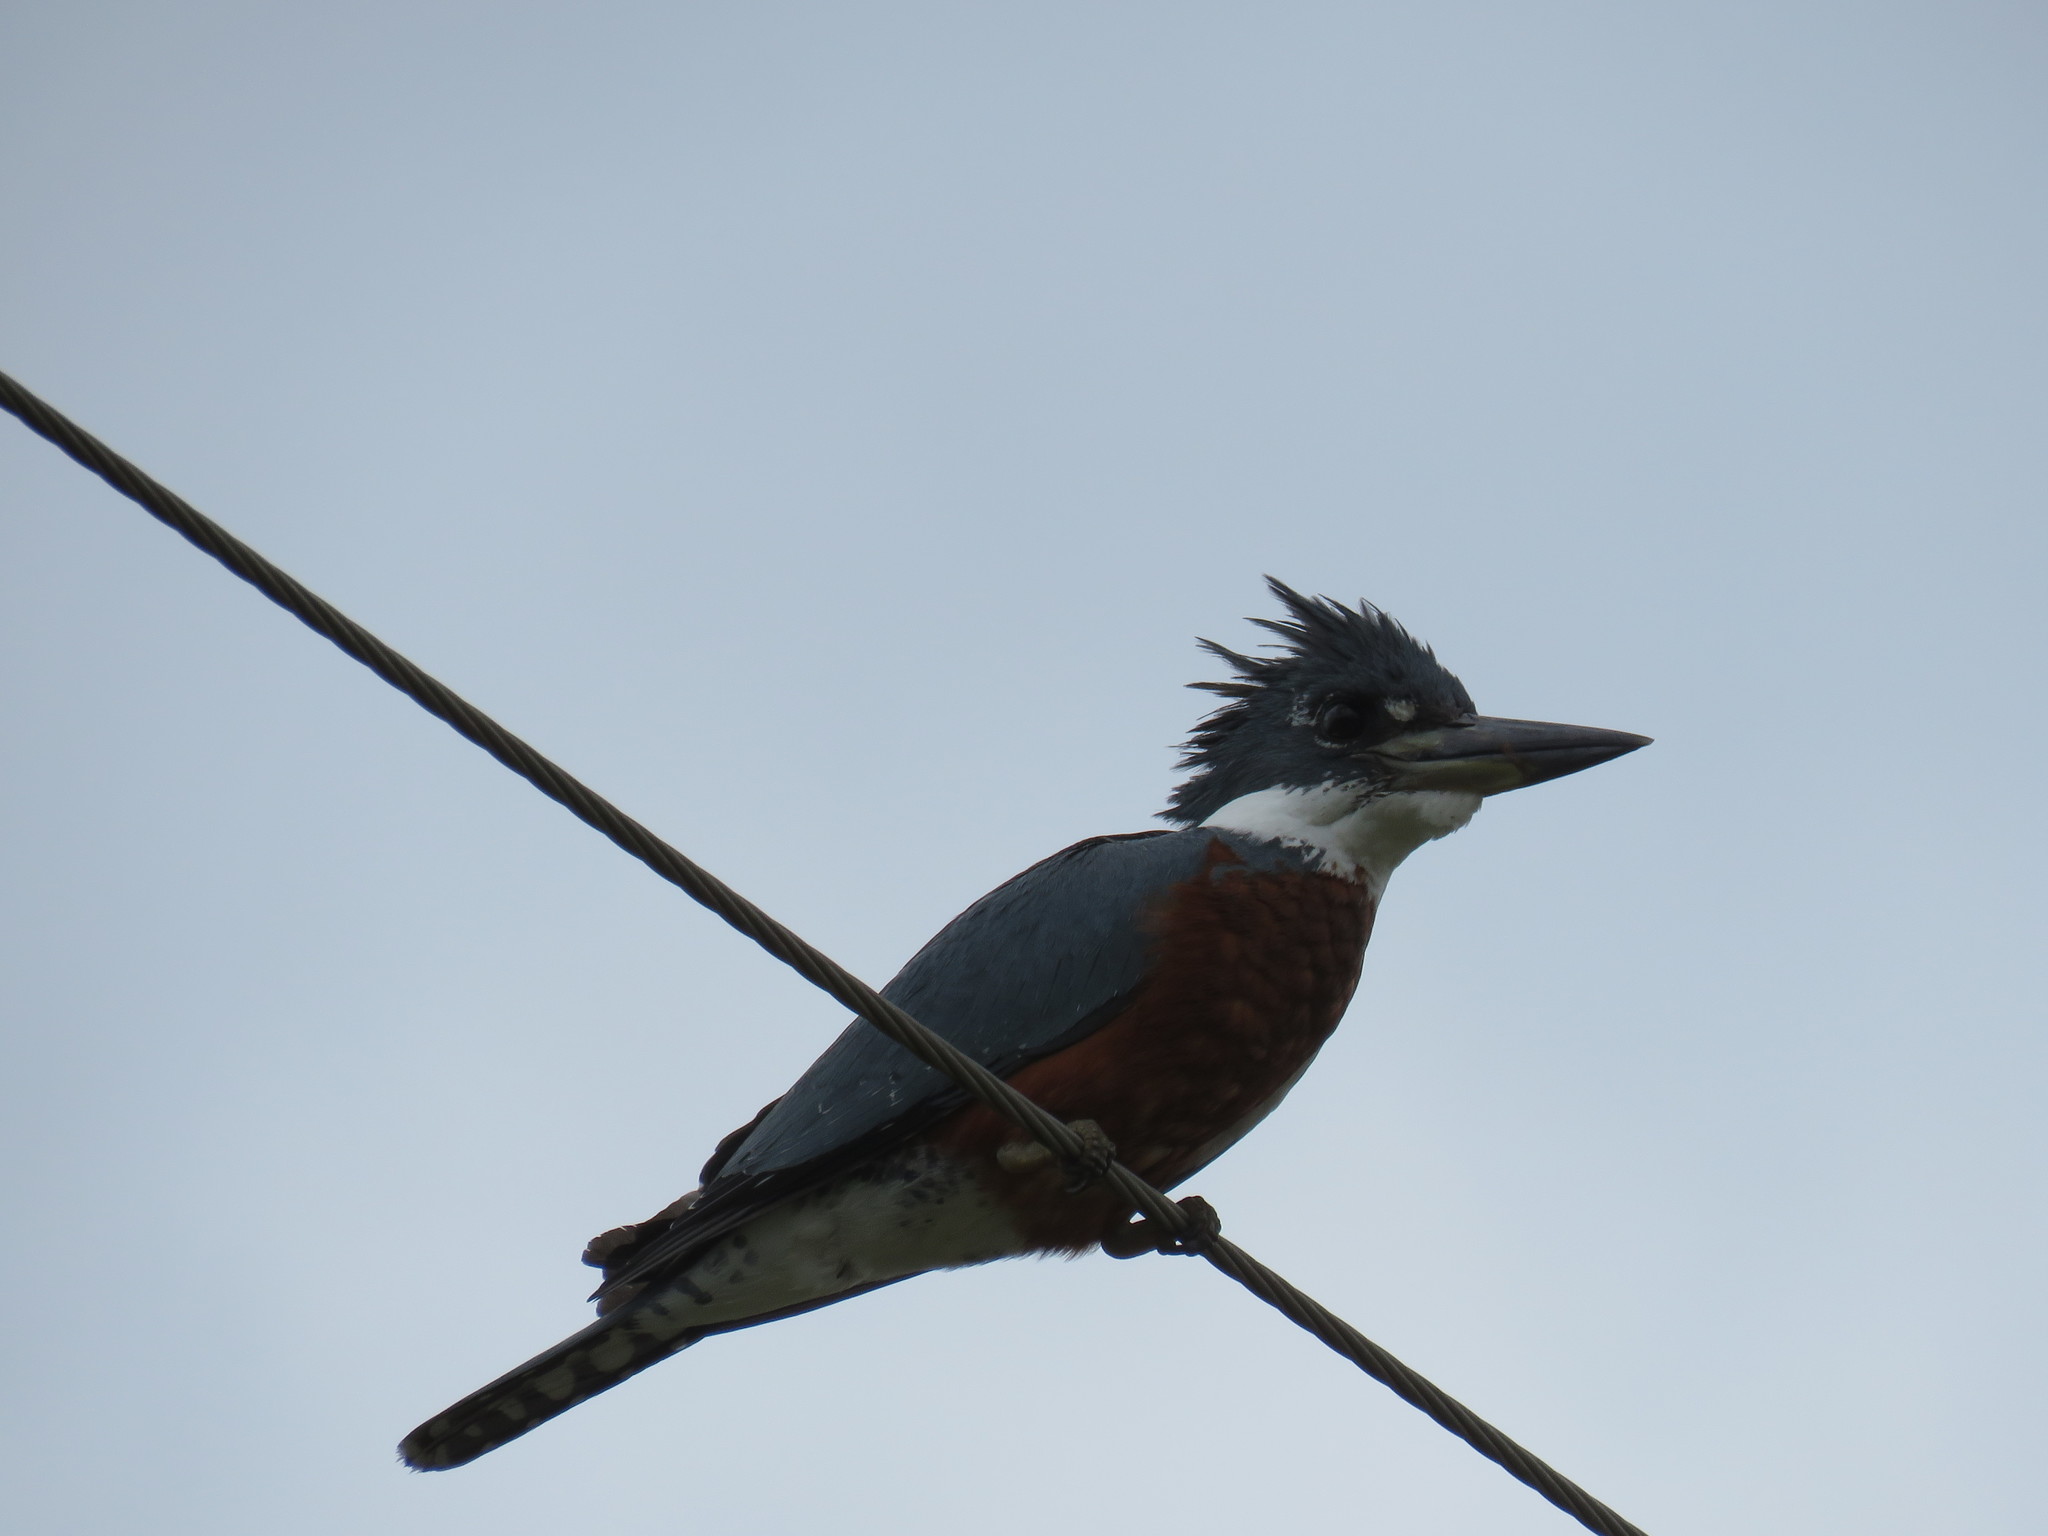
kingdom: Animalia
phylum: Chordata
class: Aves
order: Coraciiformes
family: Alcedinidae
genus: Megaceryle
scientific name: Megaceryle torquata
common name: Ringed kingfisher
